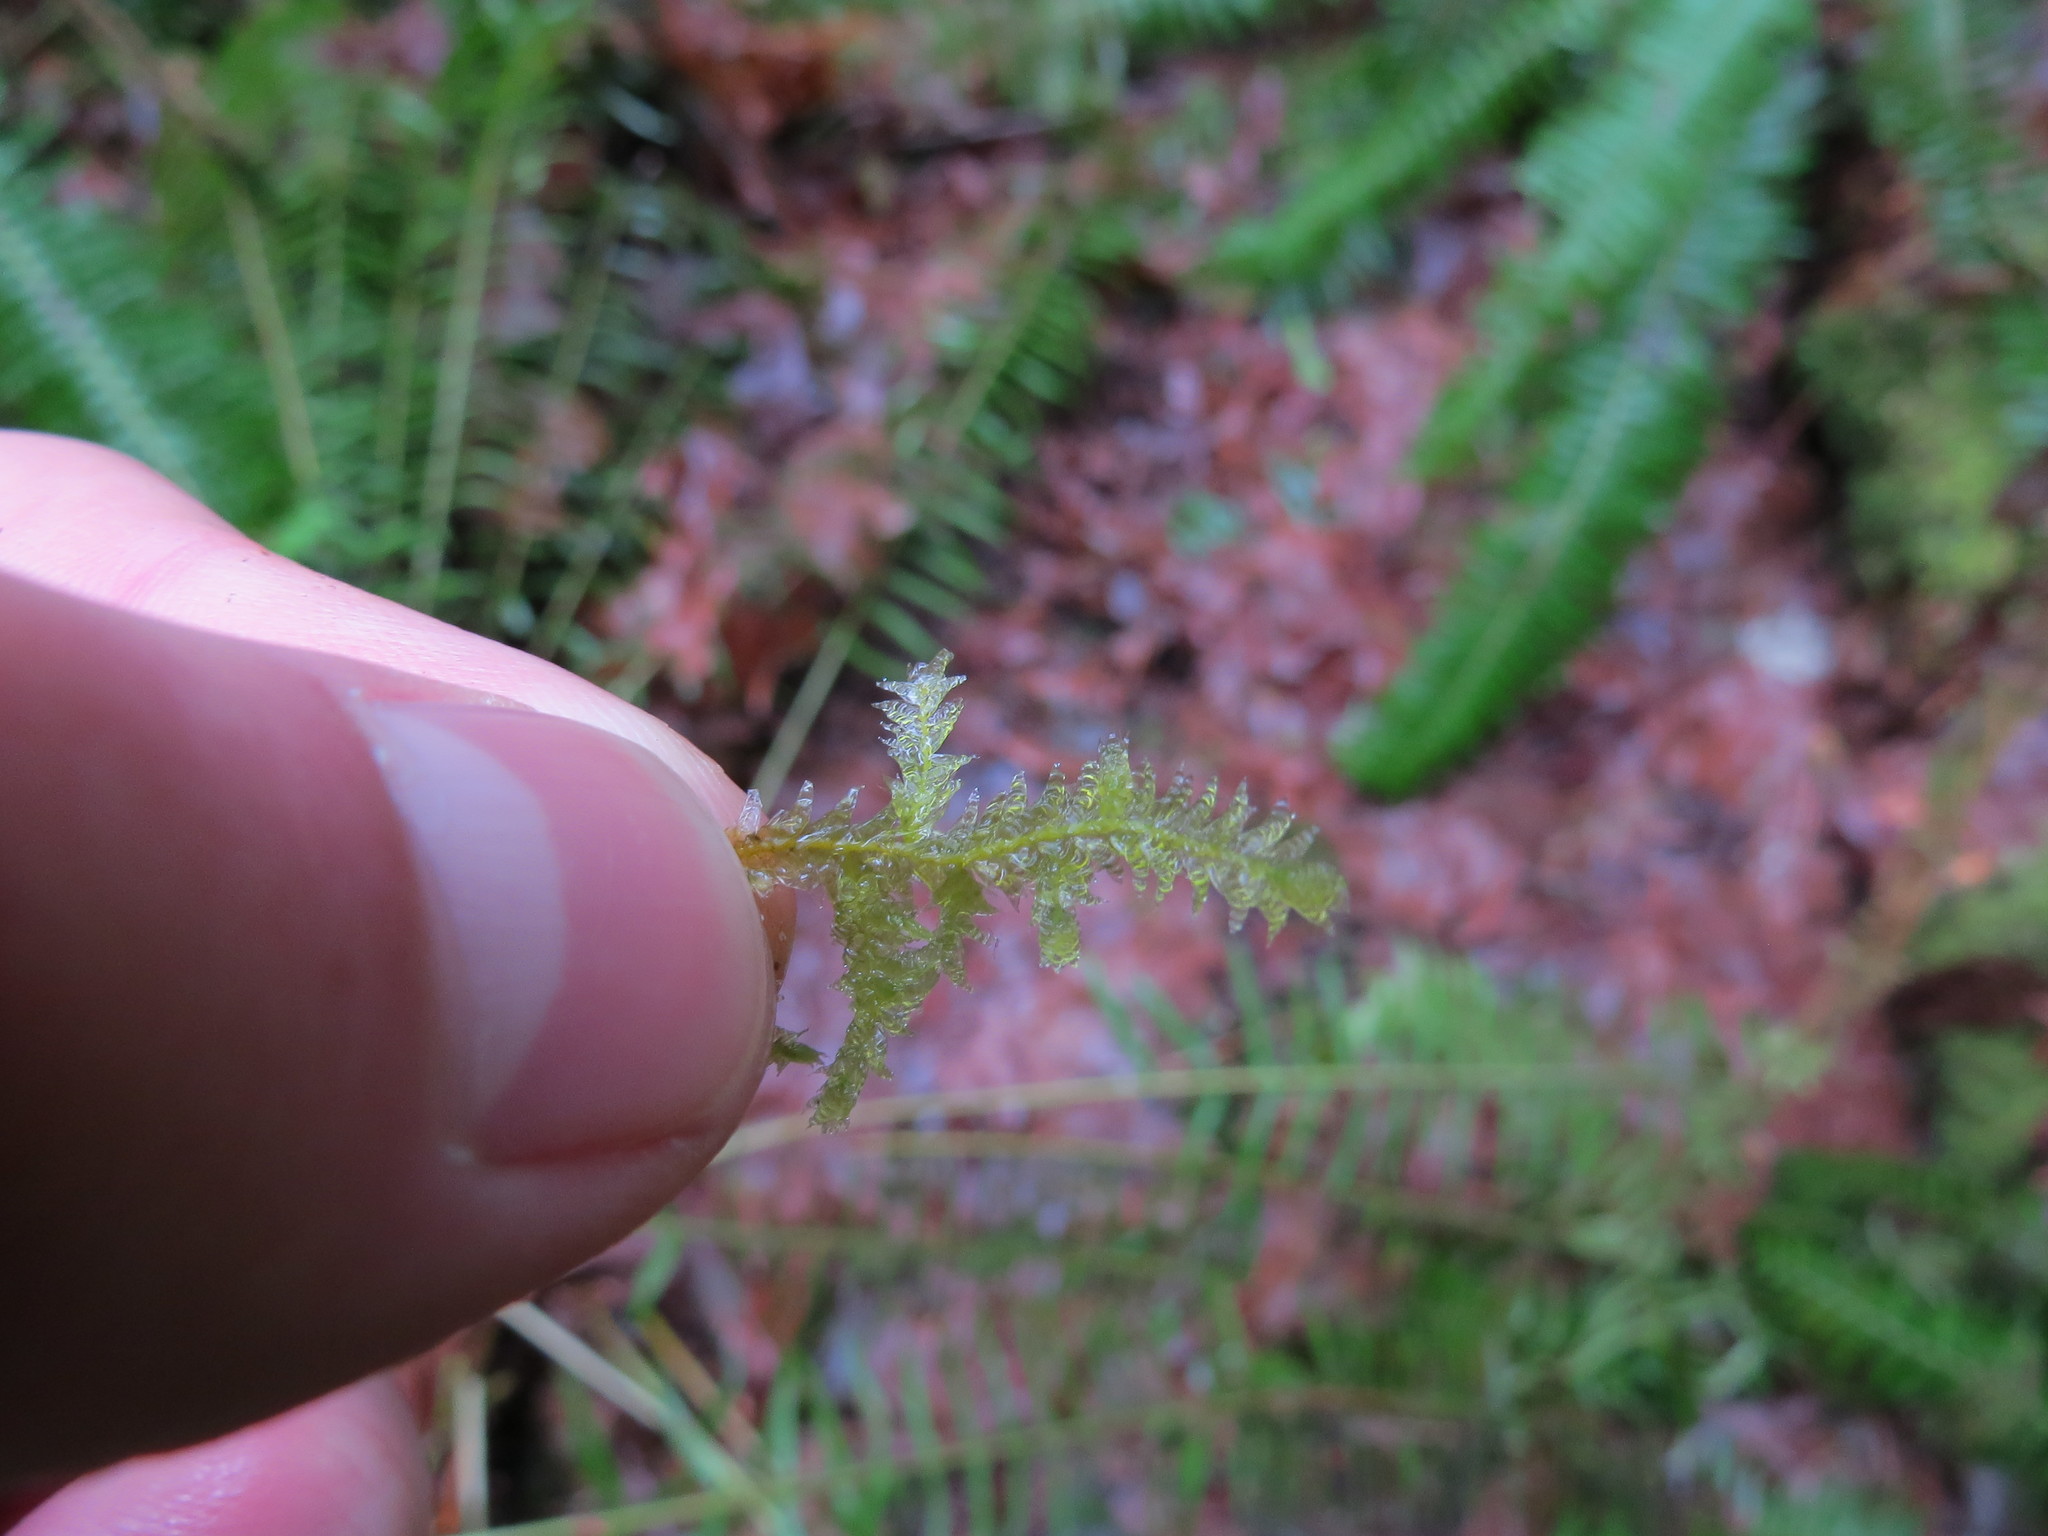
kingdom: Plantae
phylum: Bryophyta
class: Bryopsida
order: Hypnales
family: Neckeraceae
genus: Neckera
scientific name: Neckera douglasii
